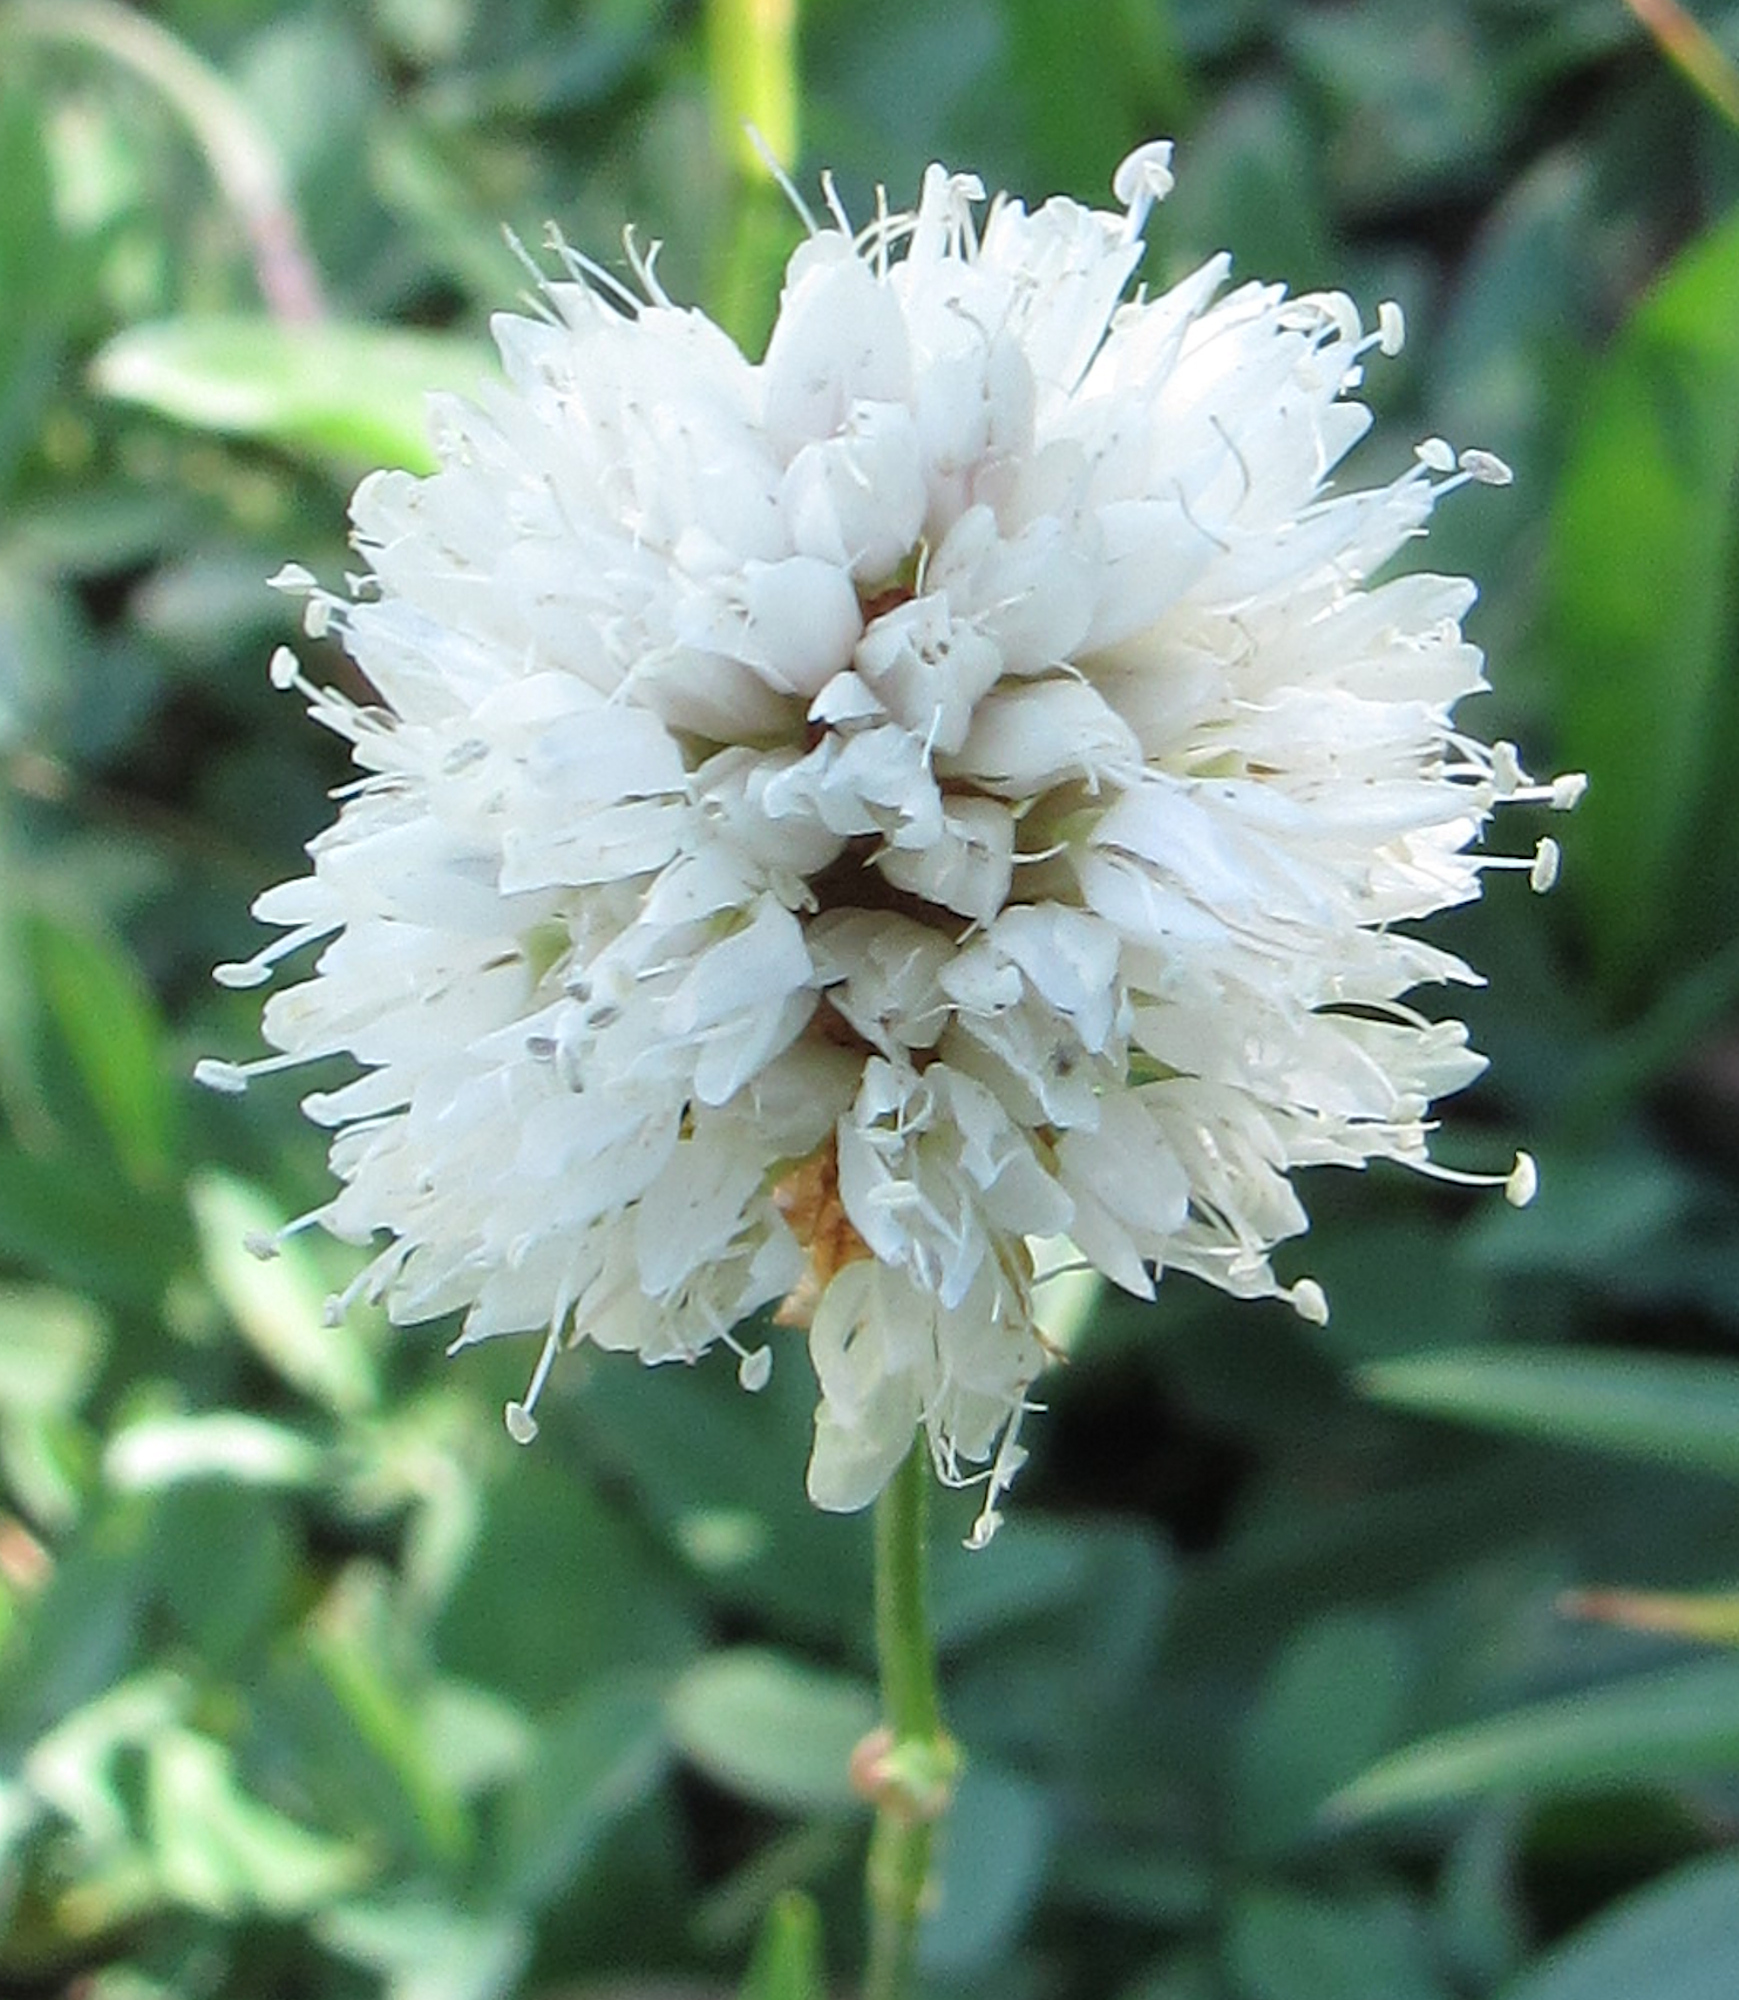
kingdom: Plantae
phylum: Tracheophyta
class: Magnoliopsida
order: Caryophyllales
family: Polygonaceae
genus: Bistorta
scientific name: Bistorta bistortoides
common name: American bistort
